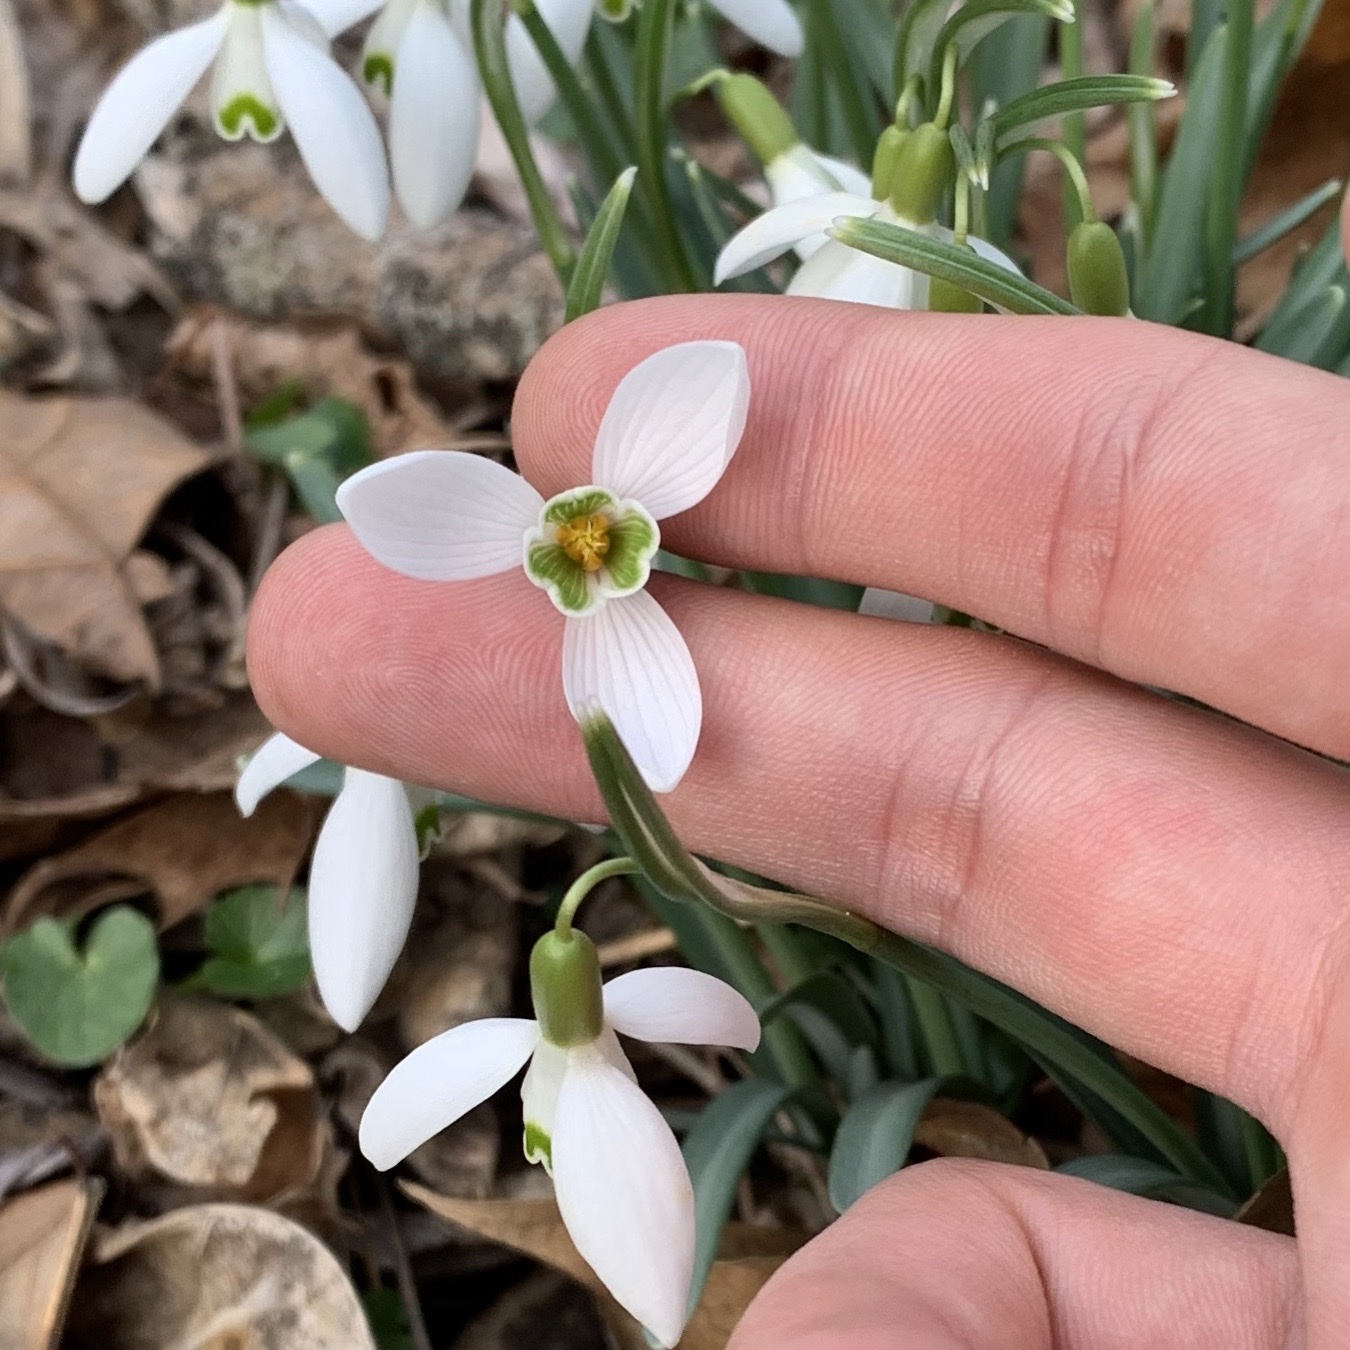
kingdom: Plantae
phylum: Tracheophyta
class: Liliopsida
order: Asparagales
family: Amaryllidaceae
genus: Galanthus
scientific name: Galanthus nivalis
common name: Snowdrop
